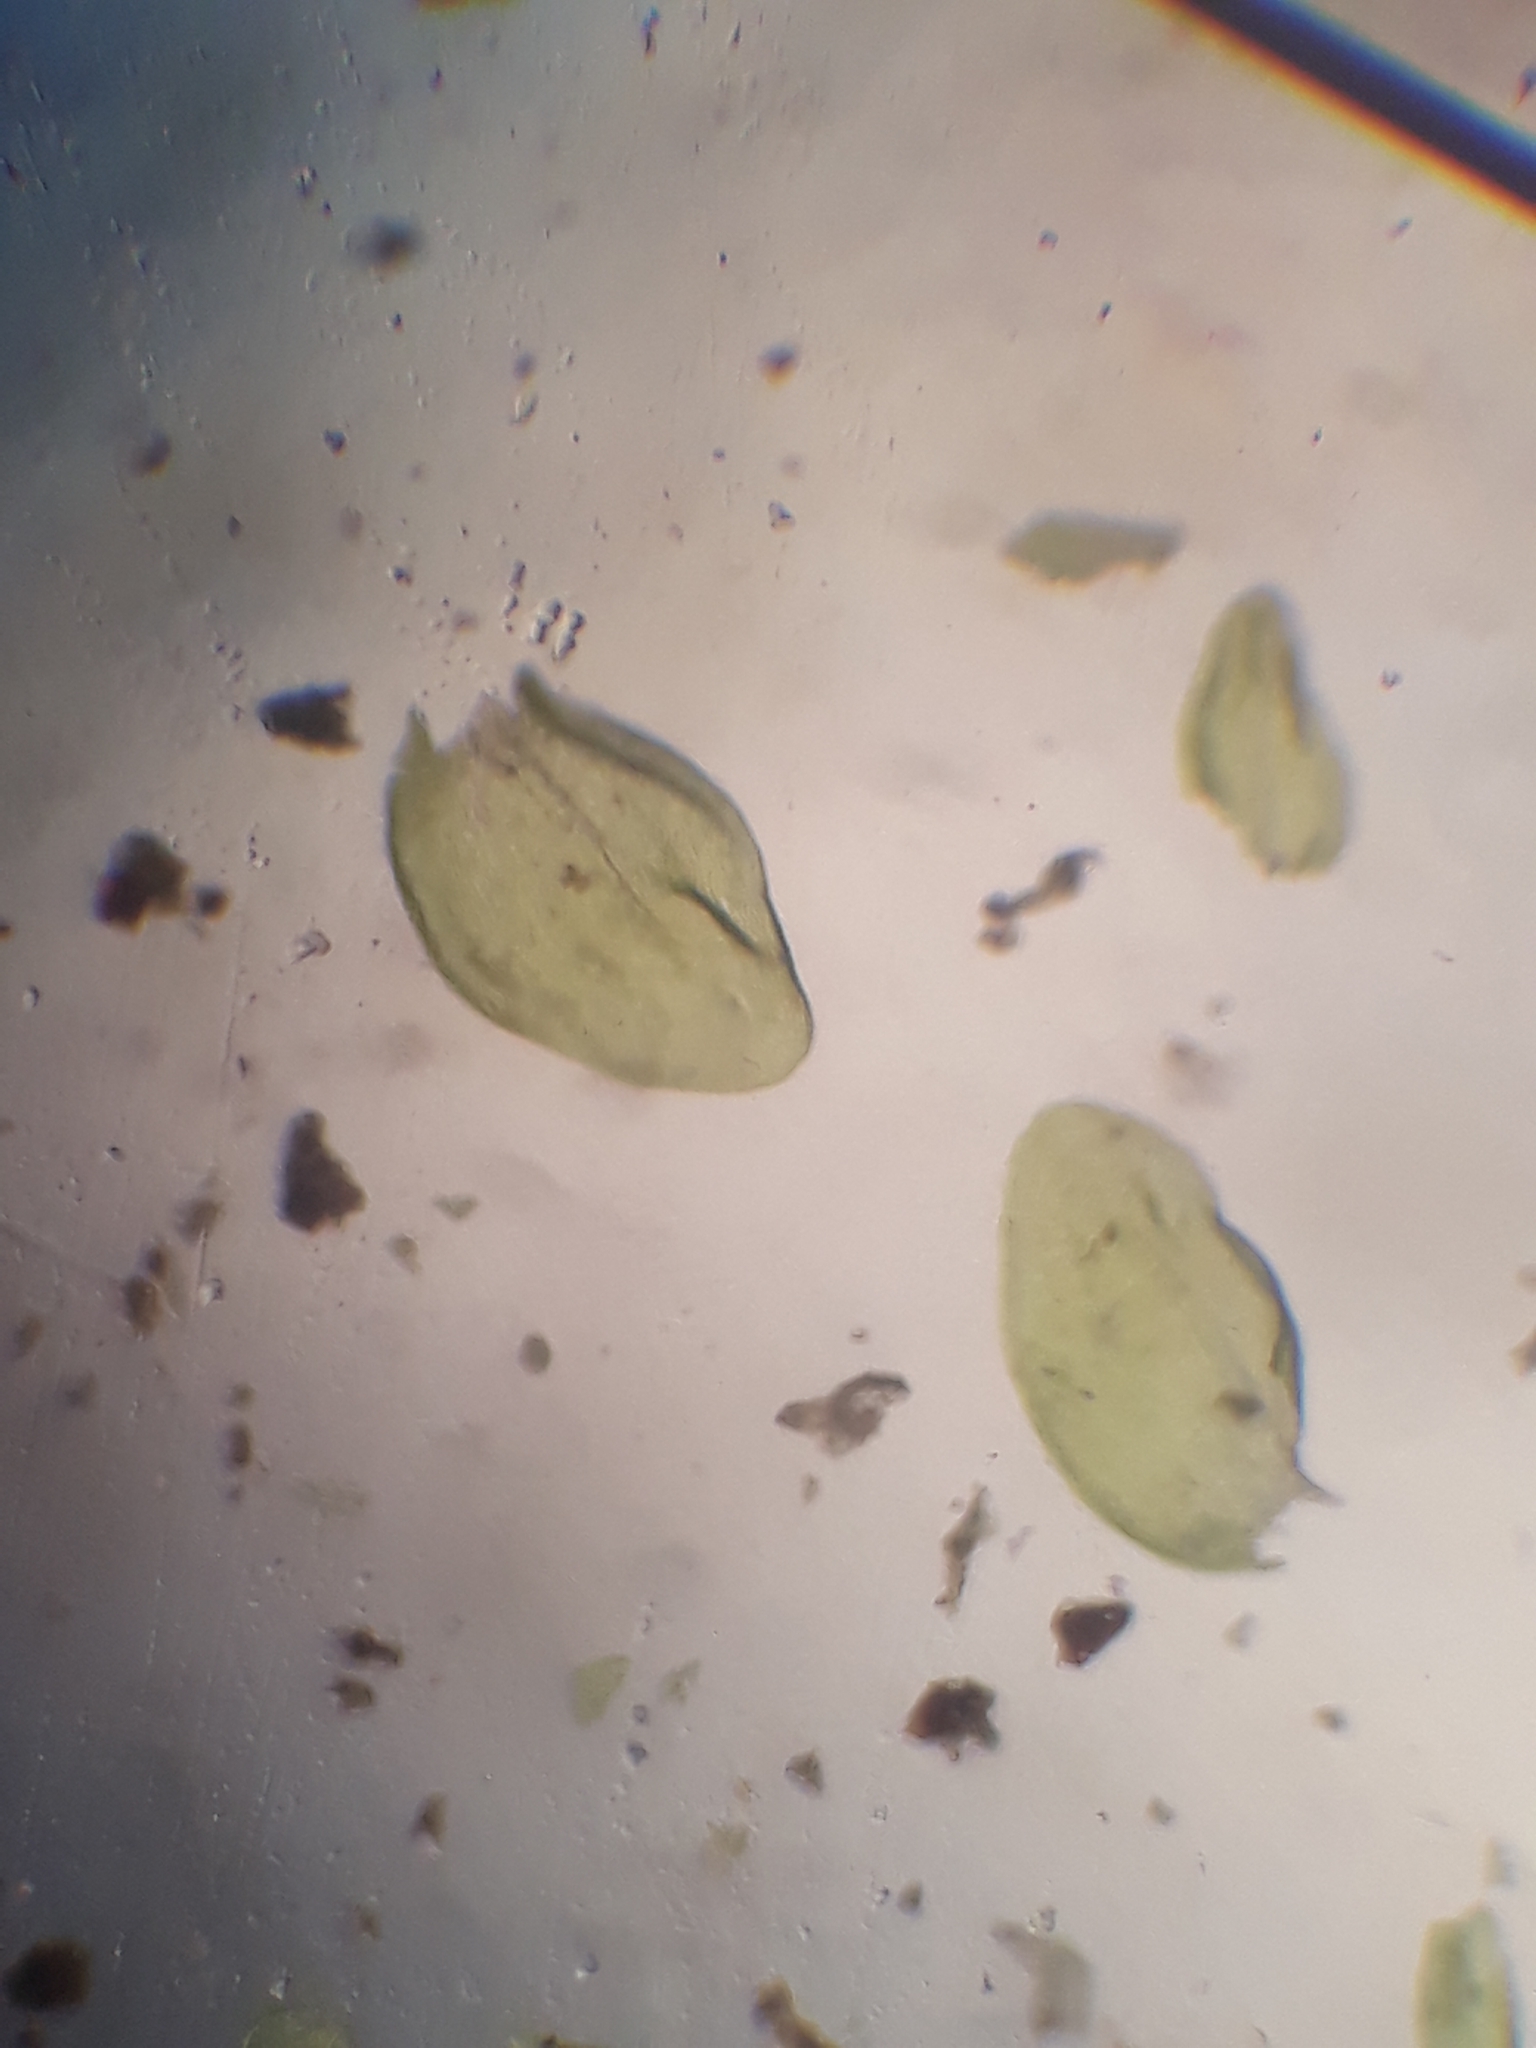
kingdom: Plantae
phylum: Bryophyta
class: Bryopsida
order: Hypnales
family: Neckeraceae
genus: Leptodon
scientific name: Leptodon smithii
